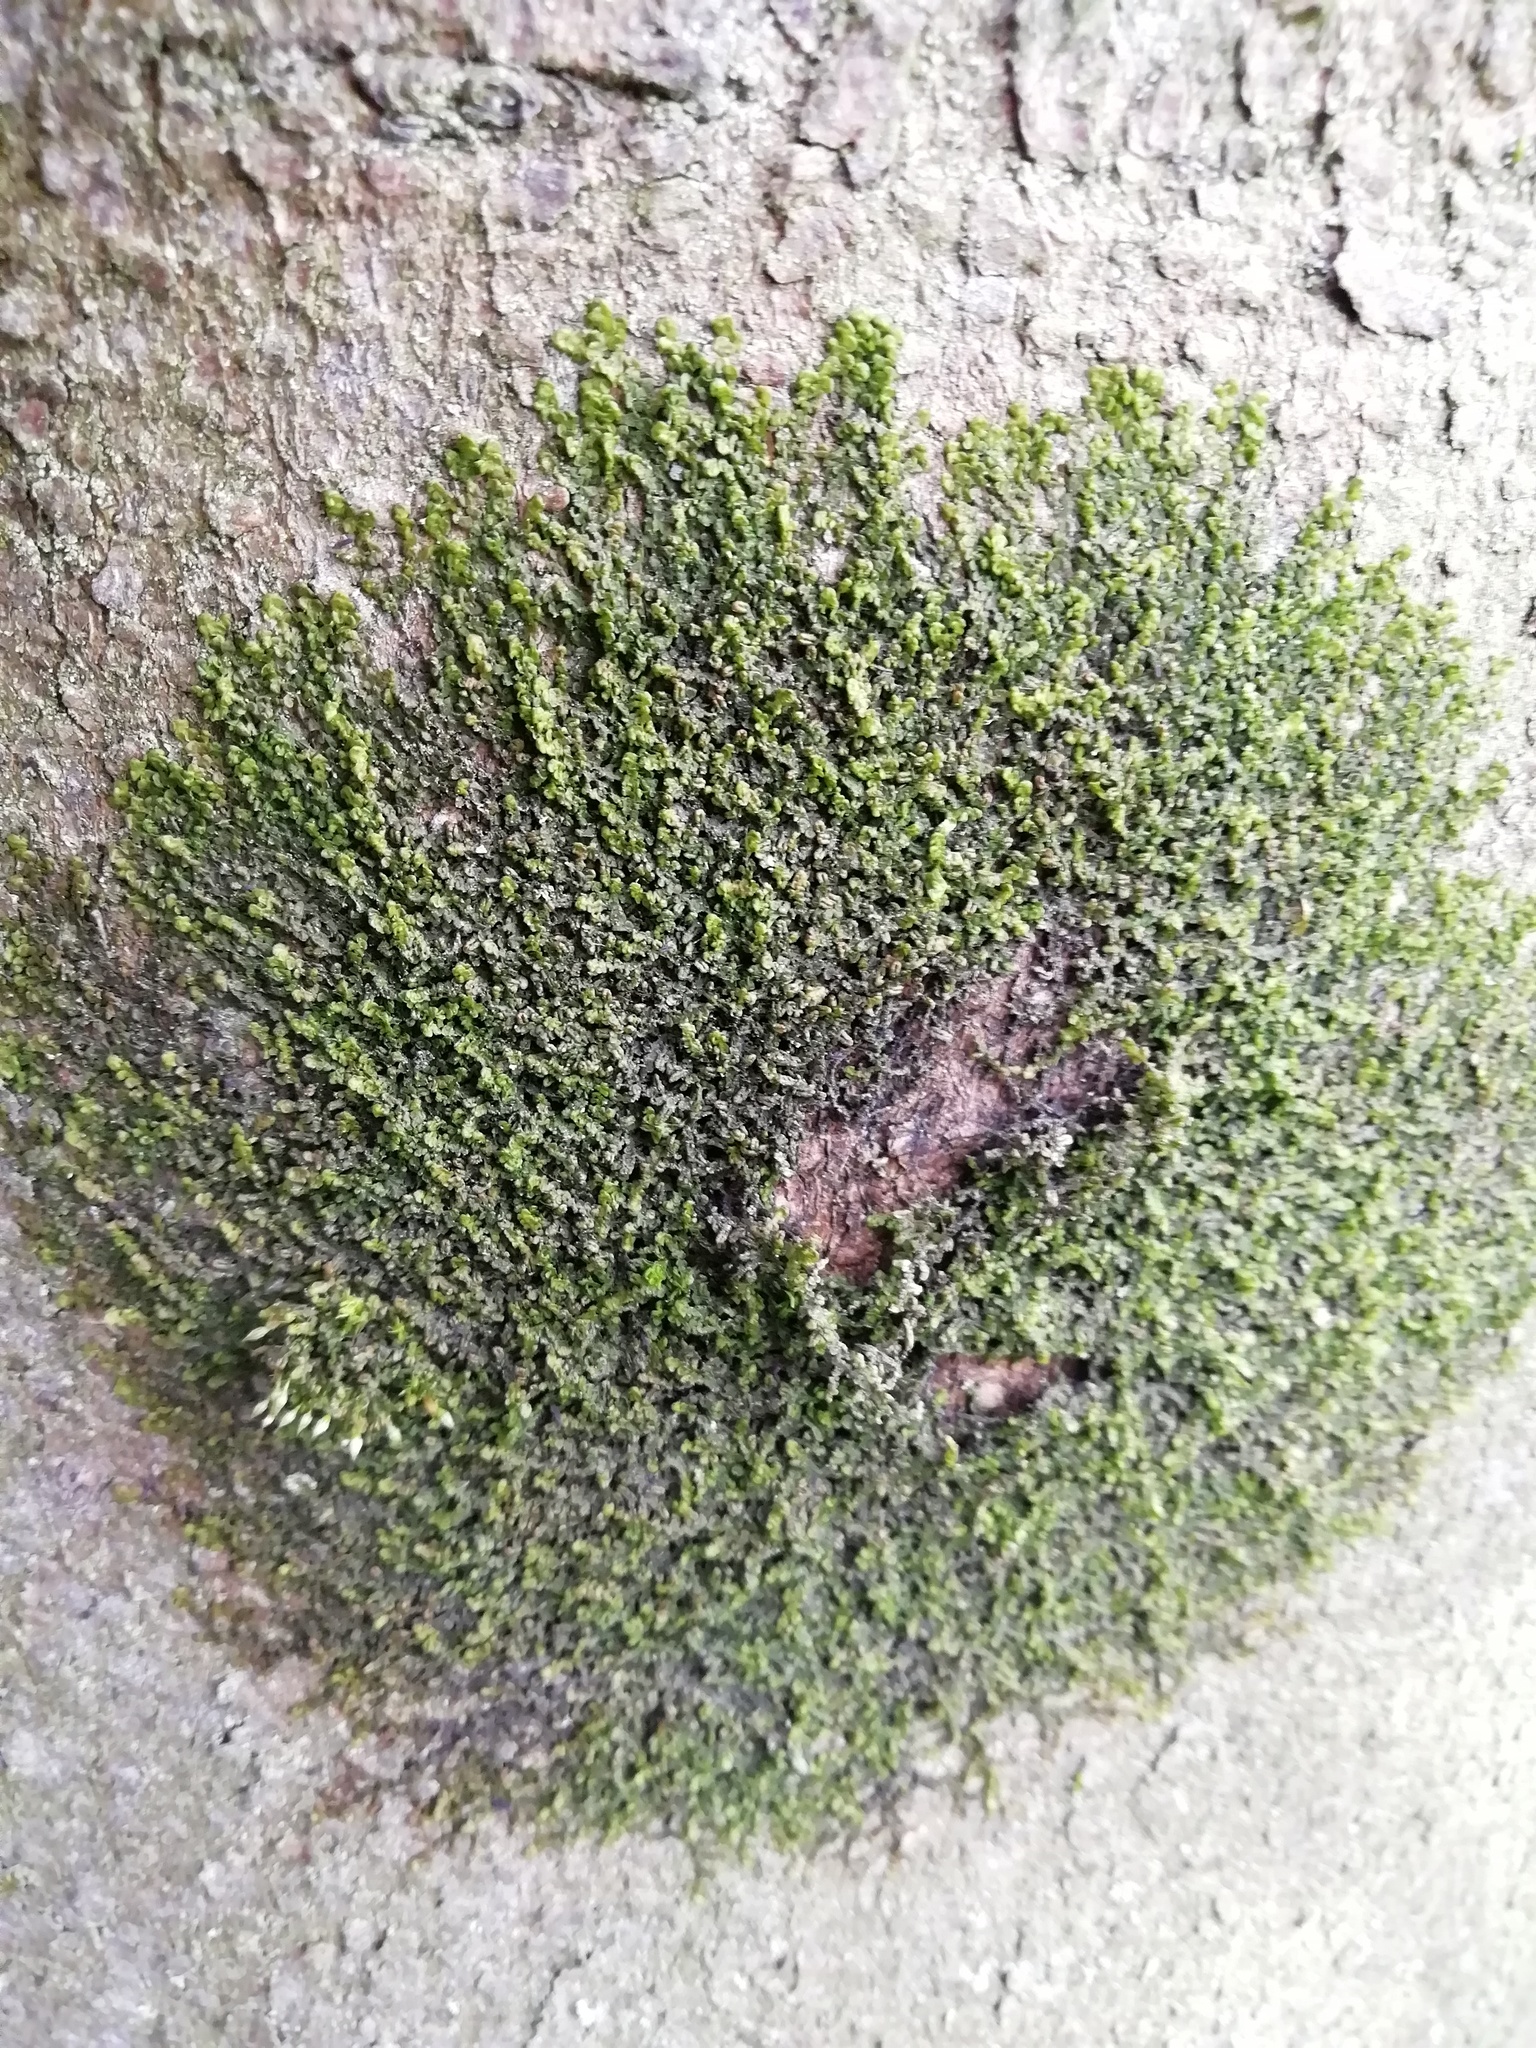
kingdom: Plantae
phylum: Marchantiophyta
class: Jungermanniopsida
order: Porellales
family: Frullaniaceae
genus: Frullania
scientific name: Frullania dilatata
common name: Dilated scalewort
